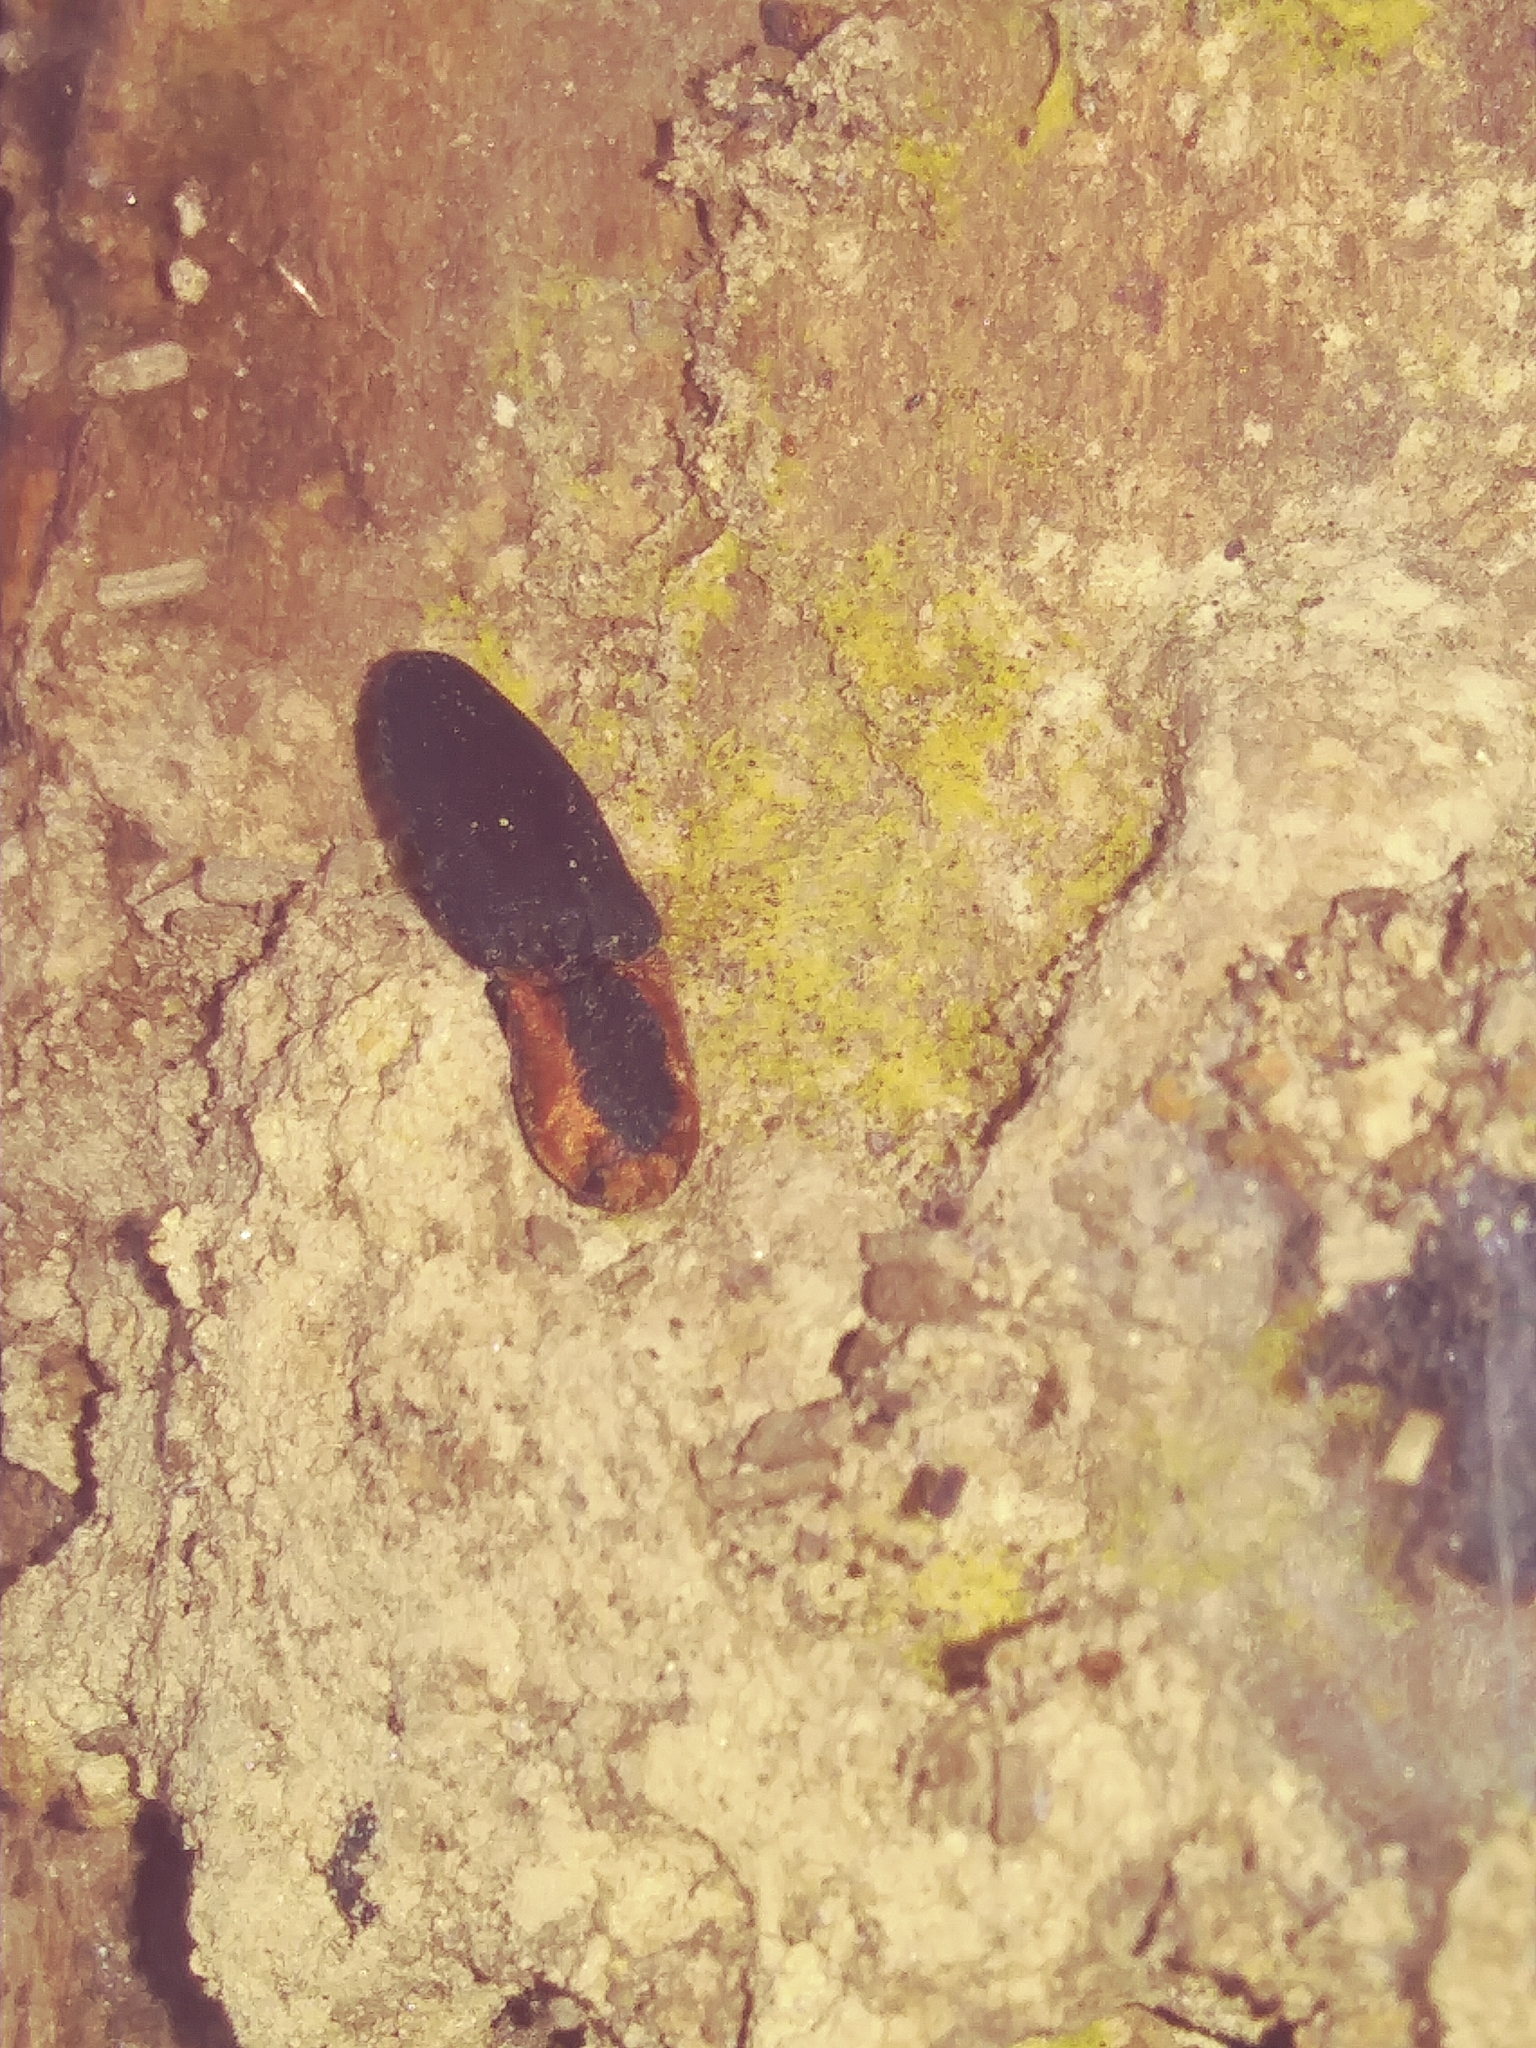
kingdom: Animalia
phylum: Arthropoda
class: Insecta
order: Coleoptera
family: Elateridae
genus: Lacon
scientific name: Lacon discoideus
